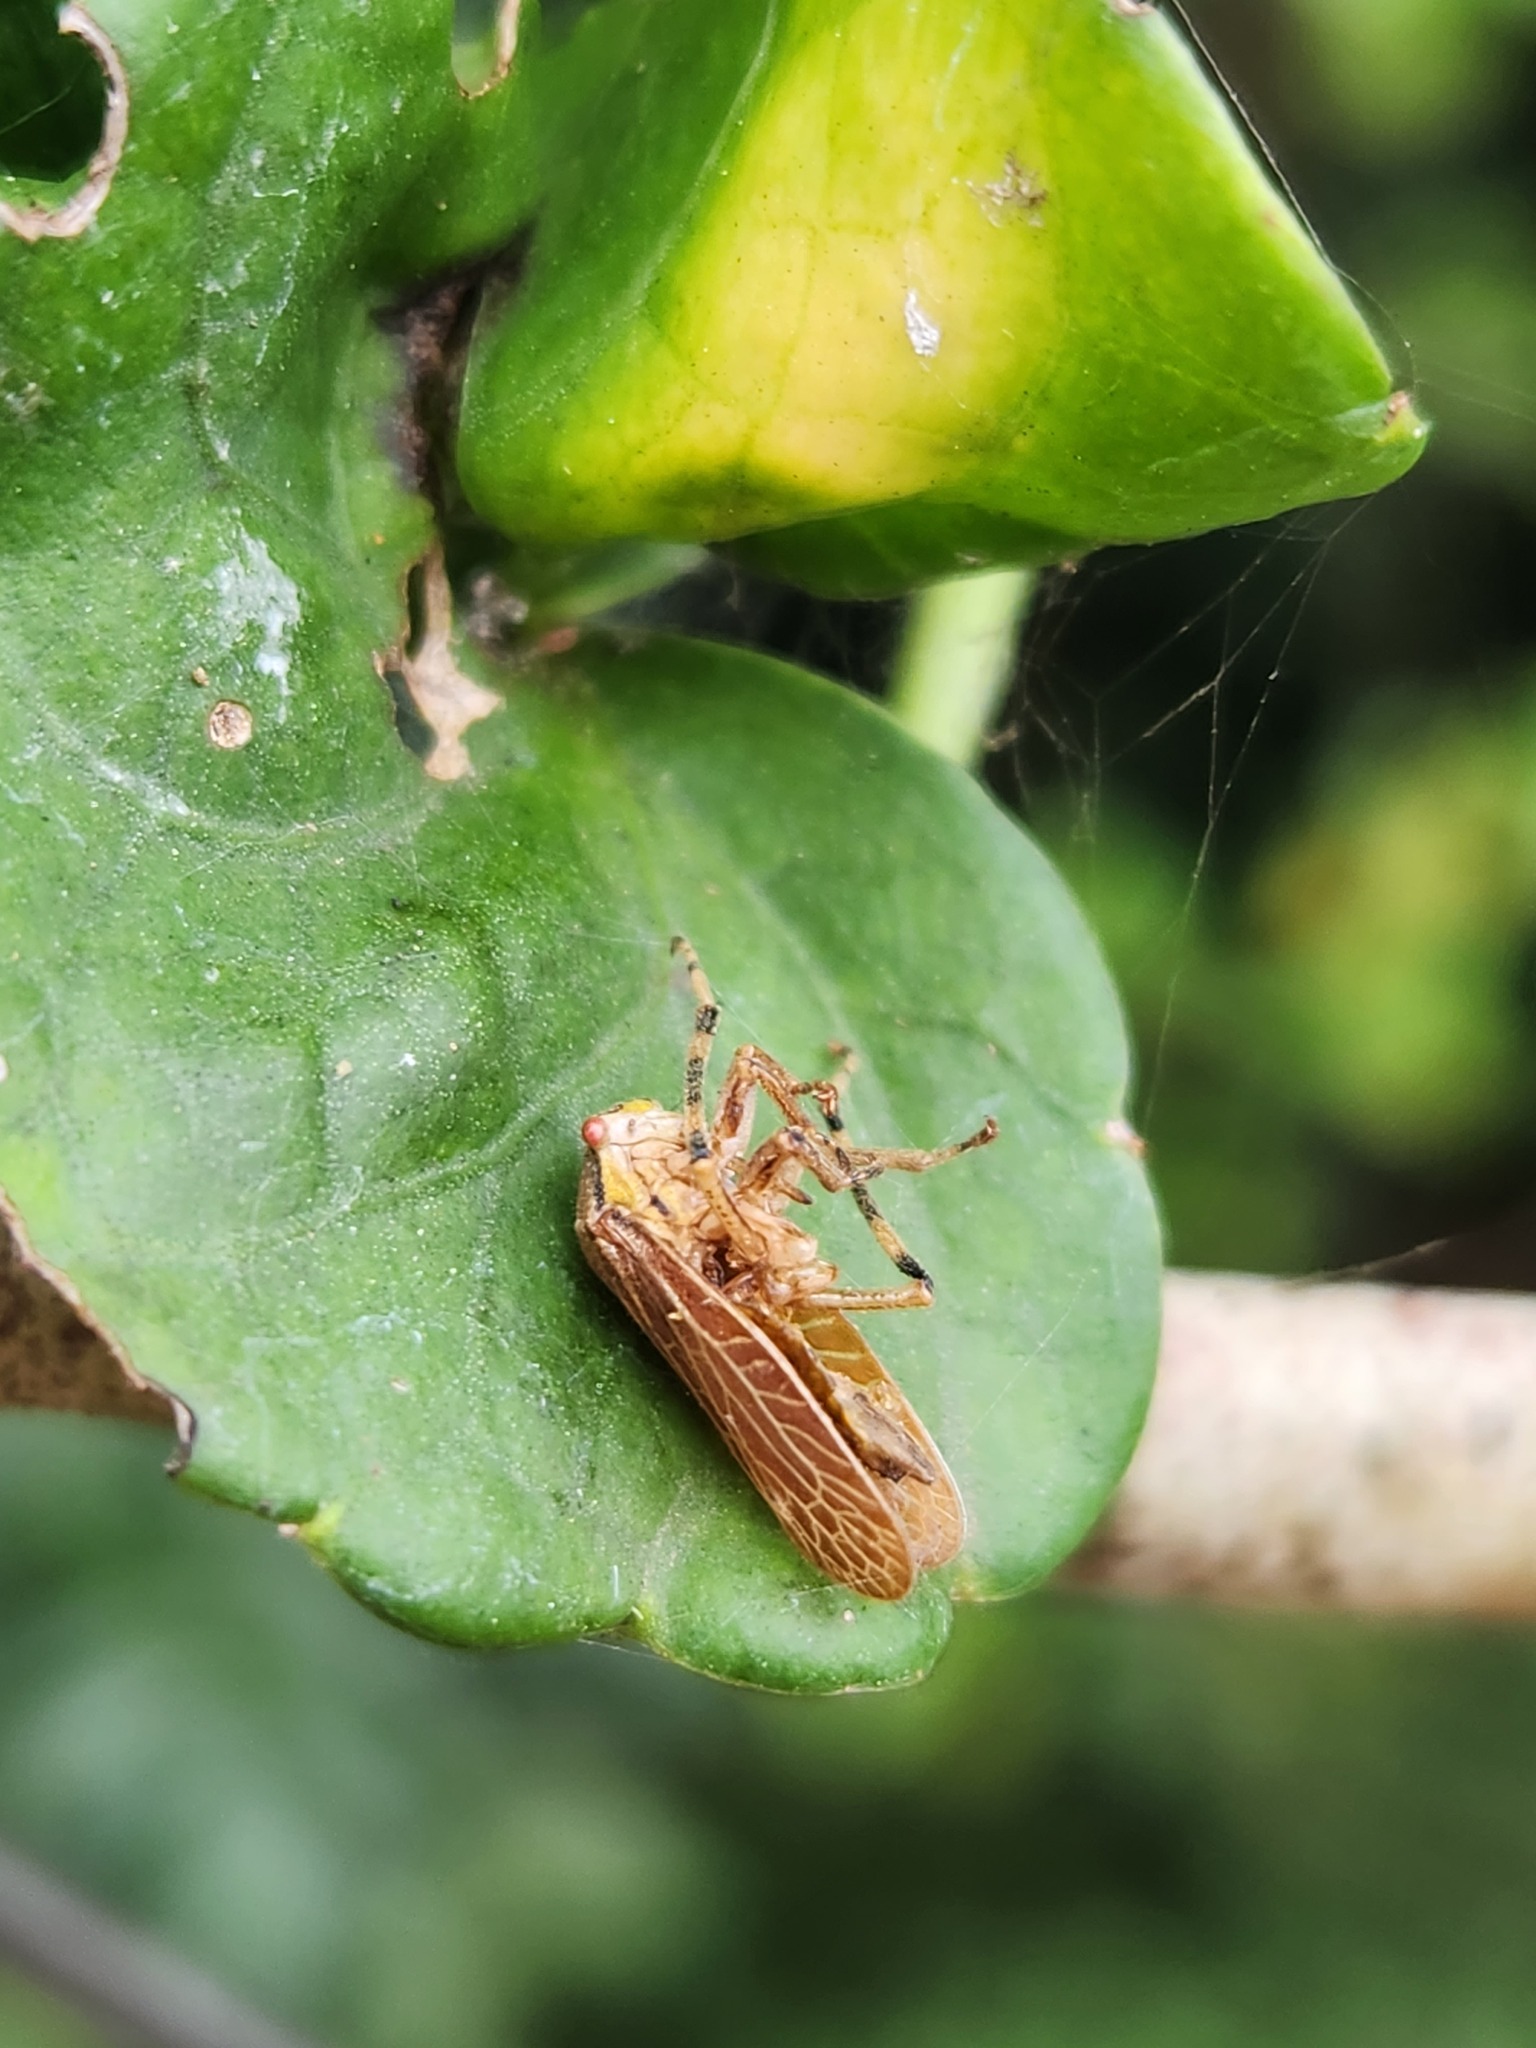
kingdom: Animalia
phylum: Arthropoda
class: Insecta
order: Hemiptera
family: Aetalionidae
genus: Aetalion
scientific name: Aetalion reticulatum
